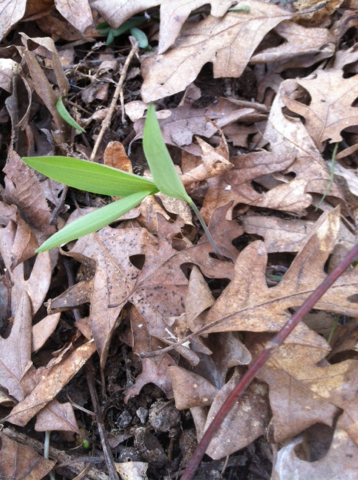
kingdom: Plantae
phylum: Tracheophyta
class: Liliopsida
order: Asparagales
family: Asparagaceae
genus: Polygonatum
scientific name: Polygonatum biflorum
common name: American solomon's-seal
